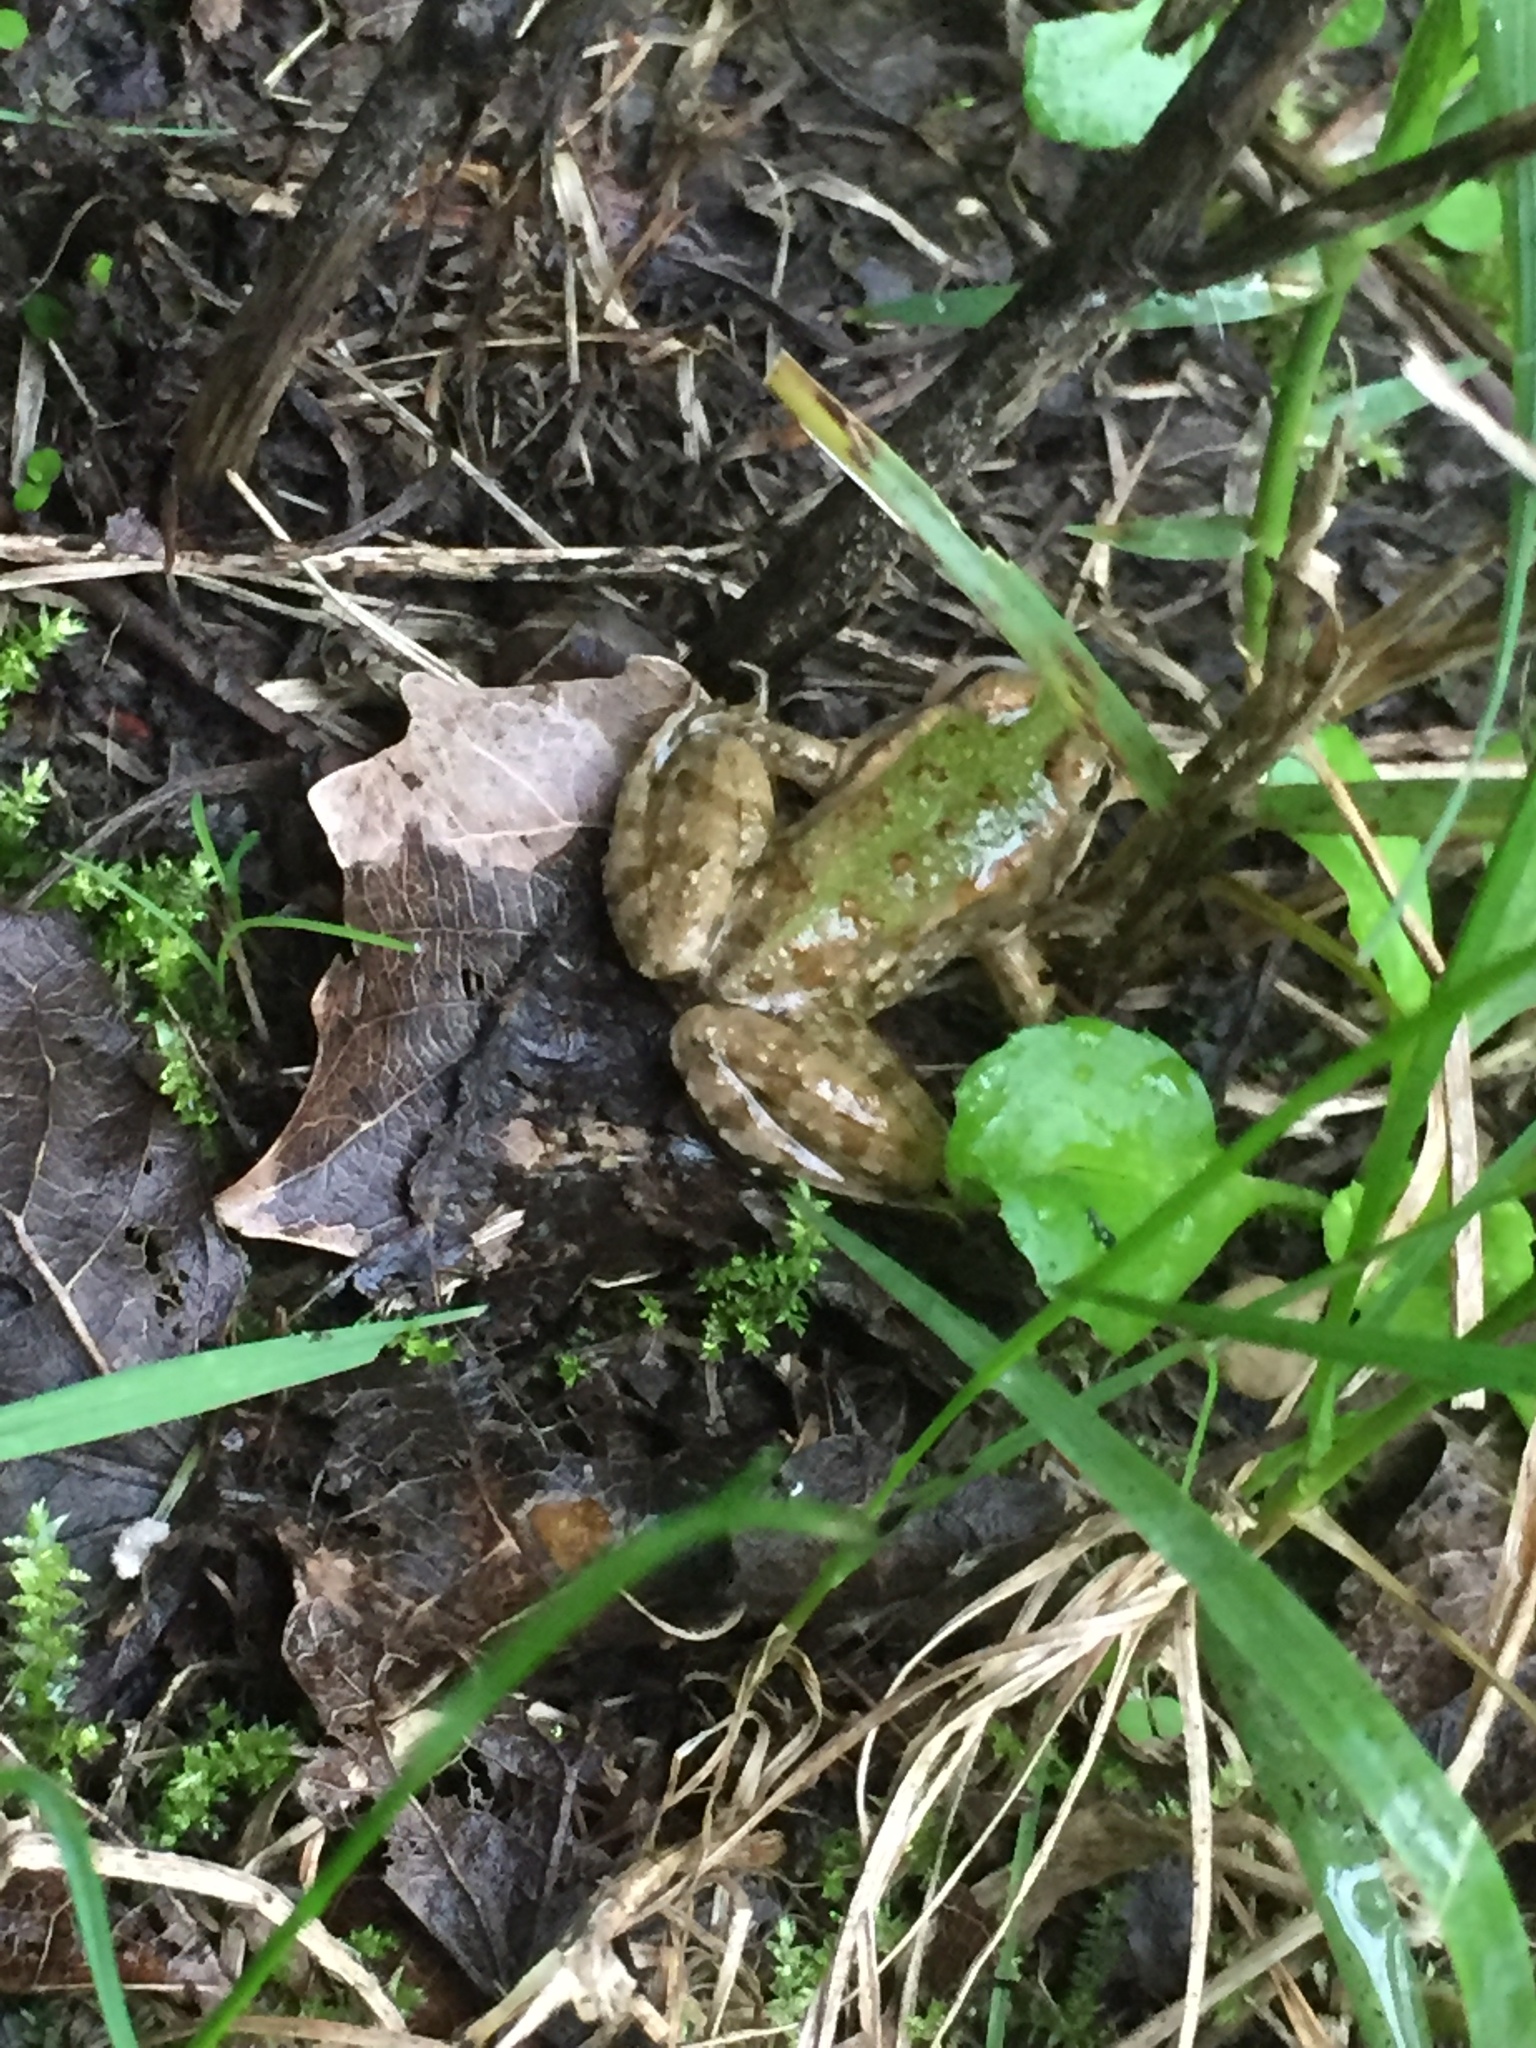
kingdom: Animalia
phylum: Chordata
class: Amphibia
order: Anura
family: Ranidae
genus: Pelophylax
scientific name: Pelophylax
